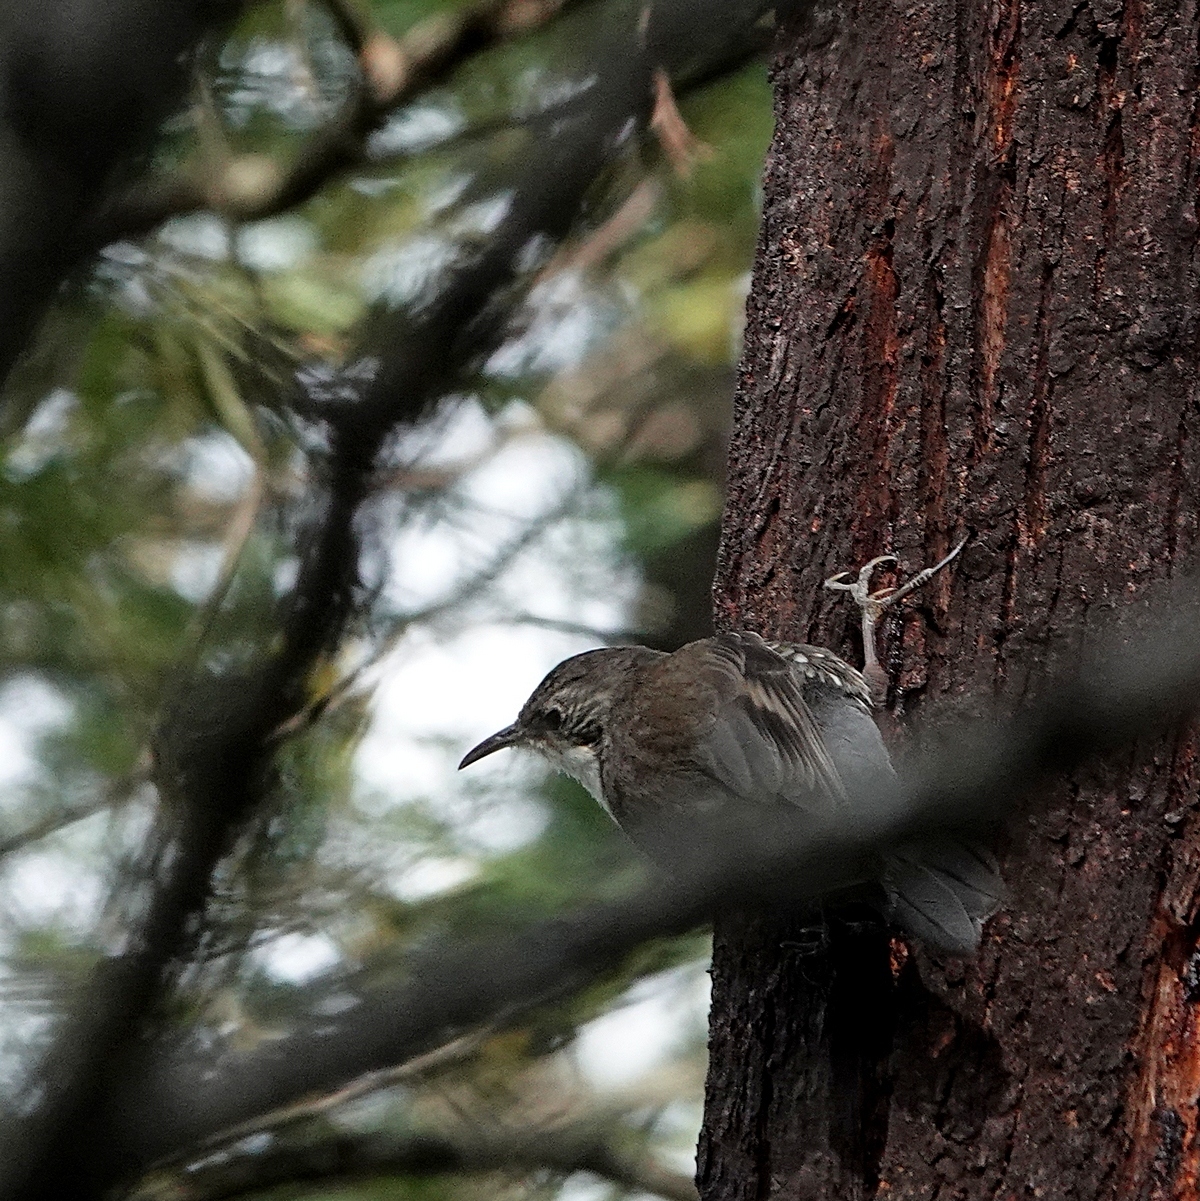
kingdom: Animalia
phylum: Chordata
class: Aves
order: Passeriformes
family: Climacteridae
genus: Cormobates
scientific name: Cormobates leucophaea
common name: White-throated treecreeper
